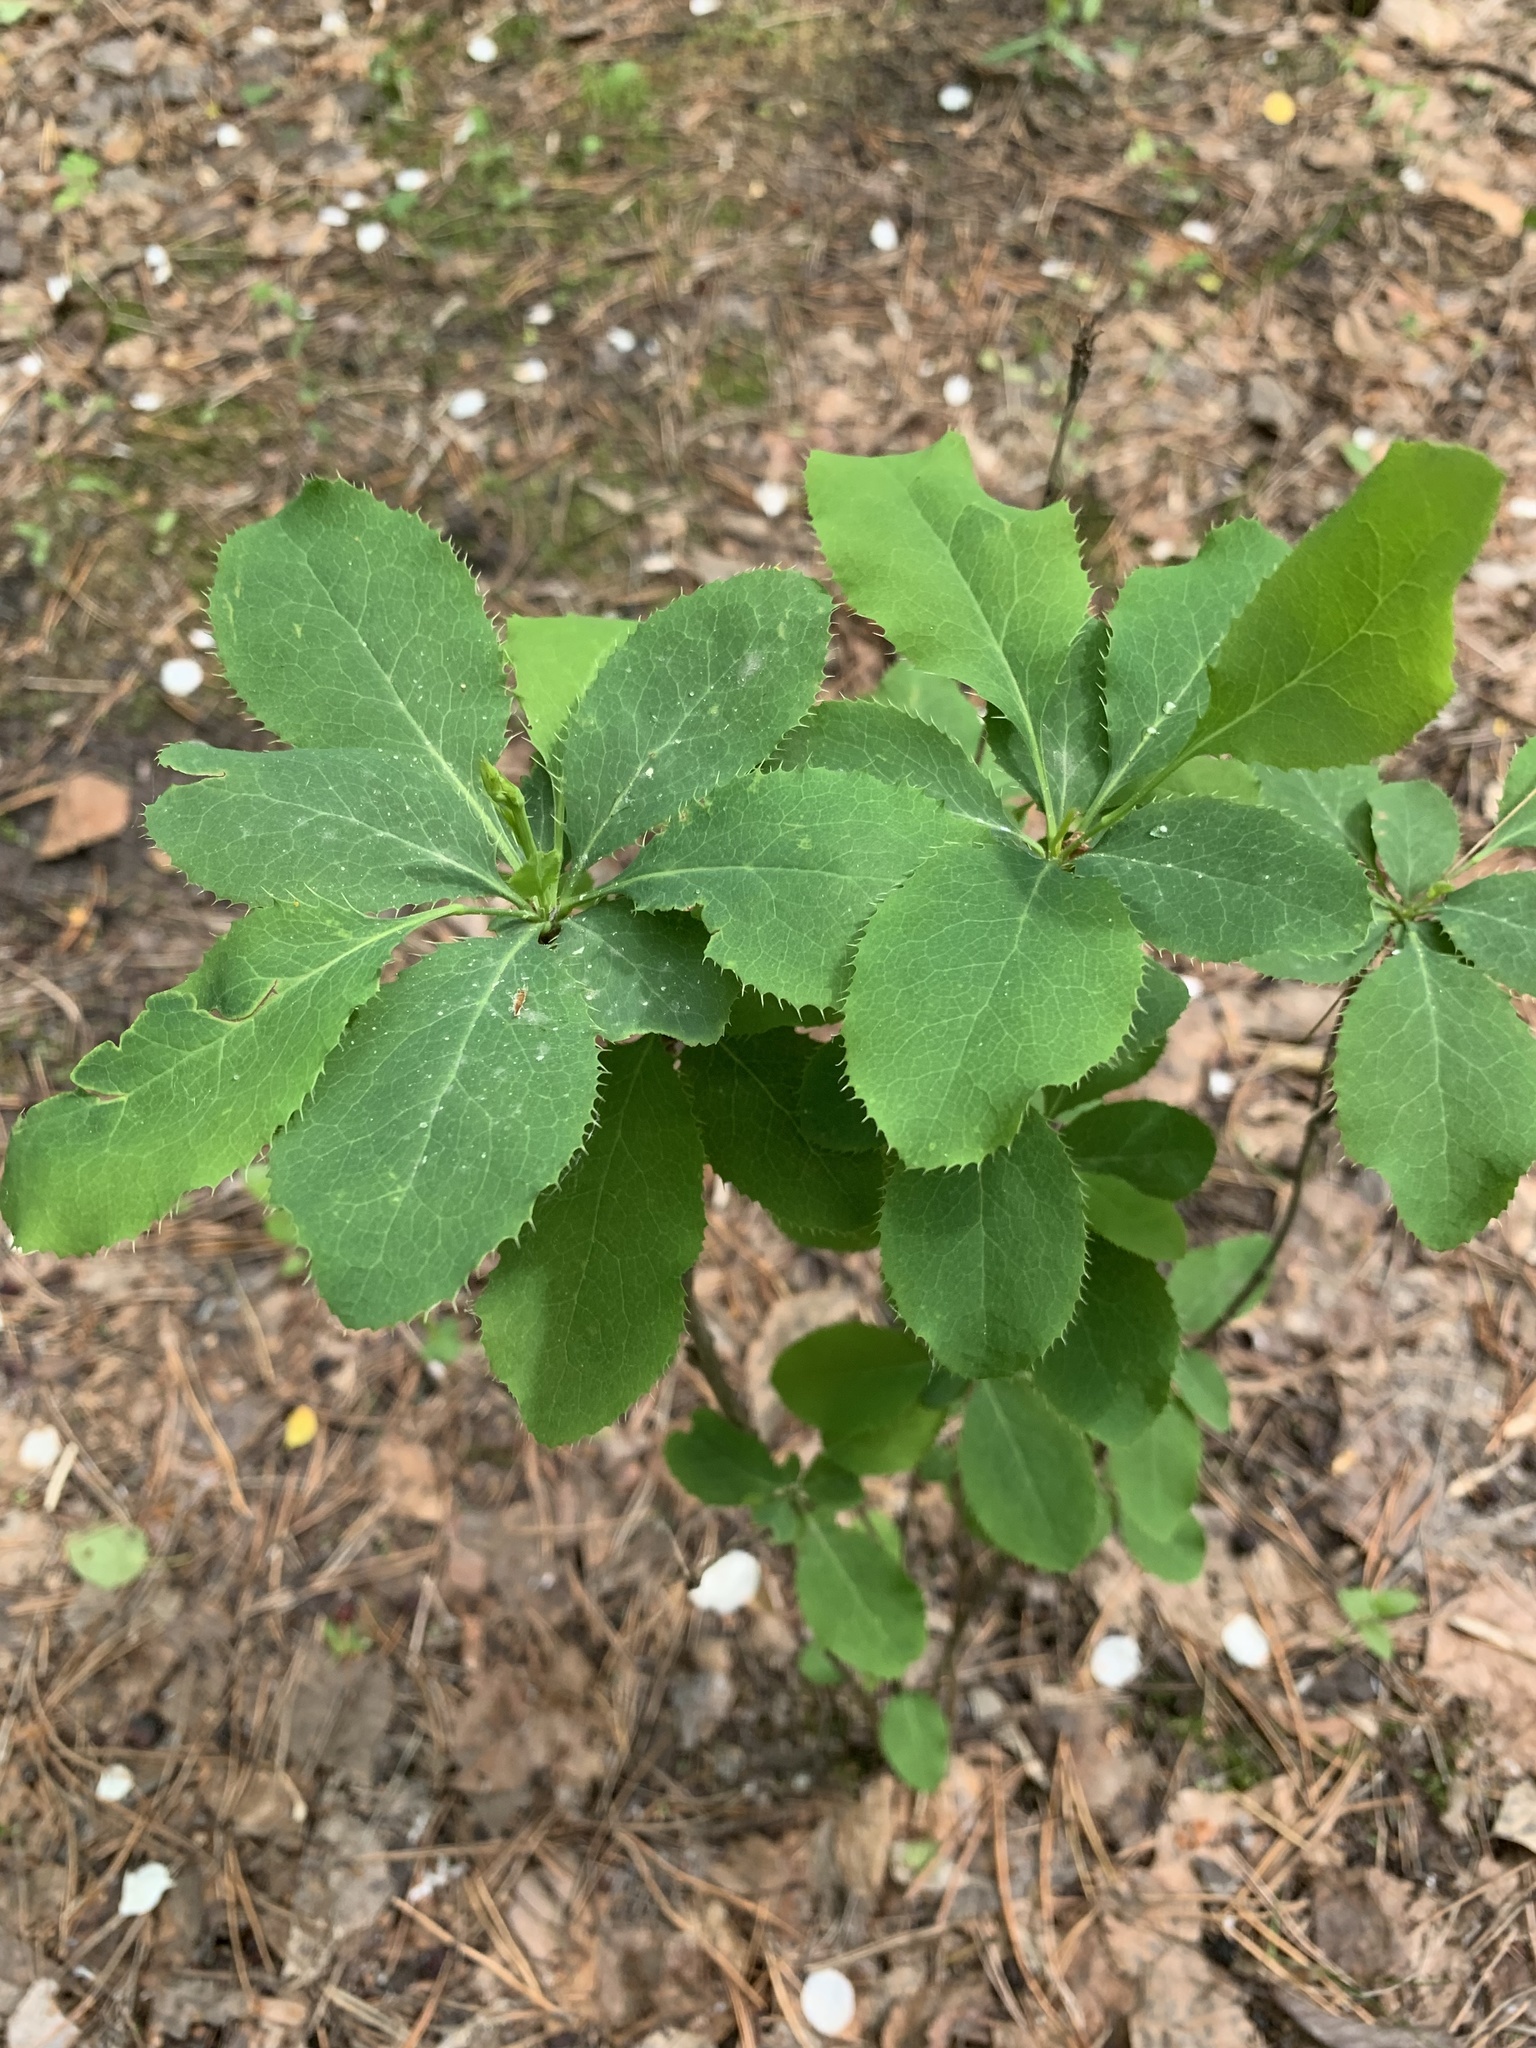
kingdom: Plantae
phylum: Tracheophyta
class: Magnoliopsida
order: Ranunculales
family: Berberidaceae
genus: Berberis
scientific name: Berberis vulgaris
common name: Barberry
